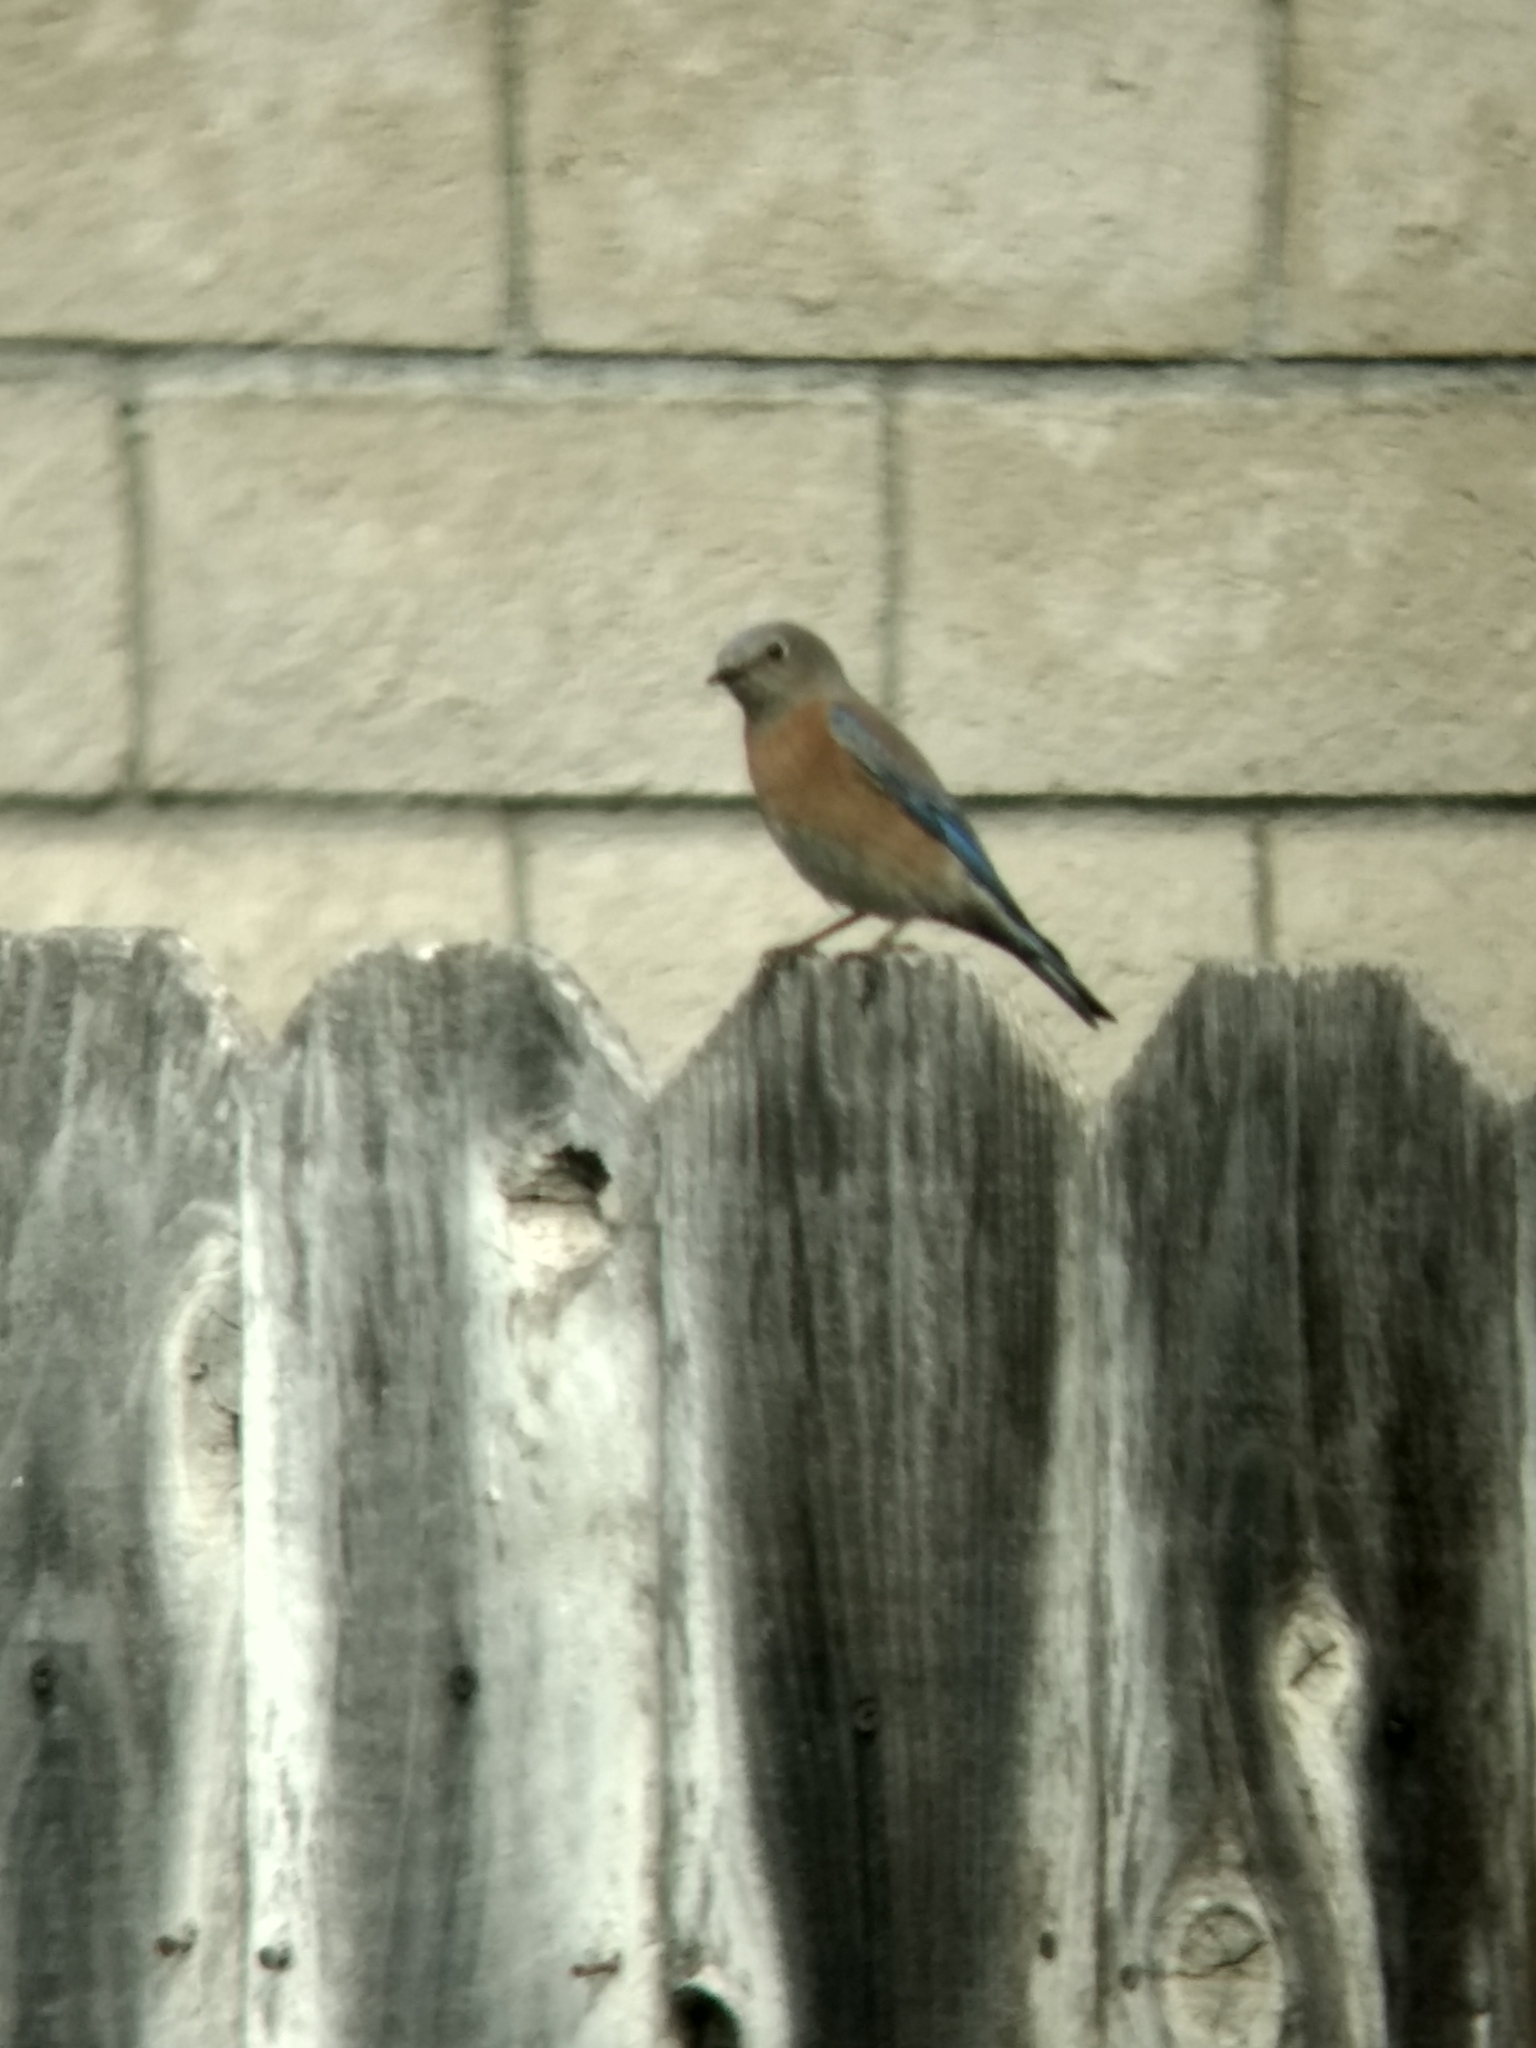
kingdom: Animalia
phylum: Chordata
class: Aves
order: Passeriformes
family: Turdidae
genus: Sialia
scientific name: Sialia mexicana
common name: Western bluebird
